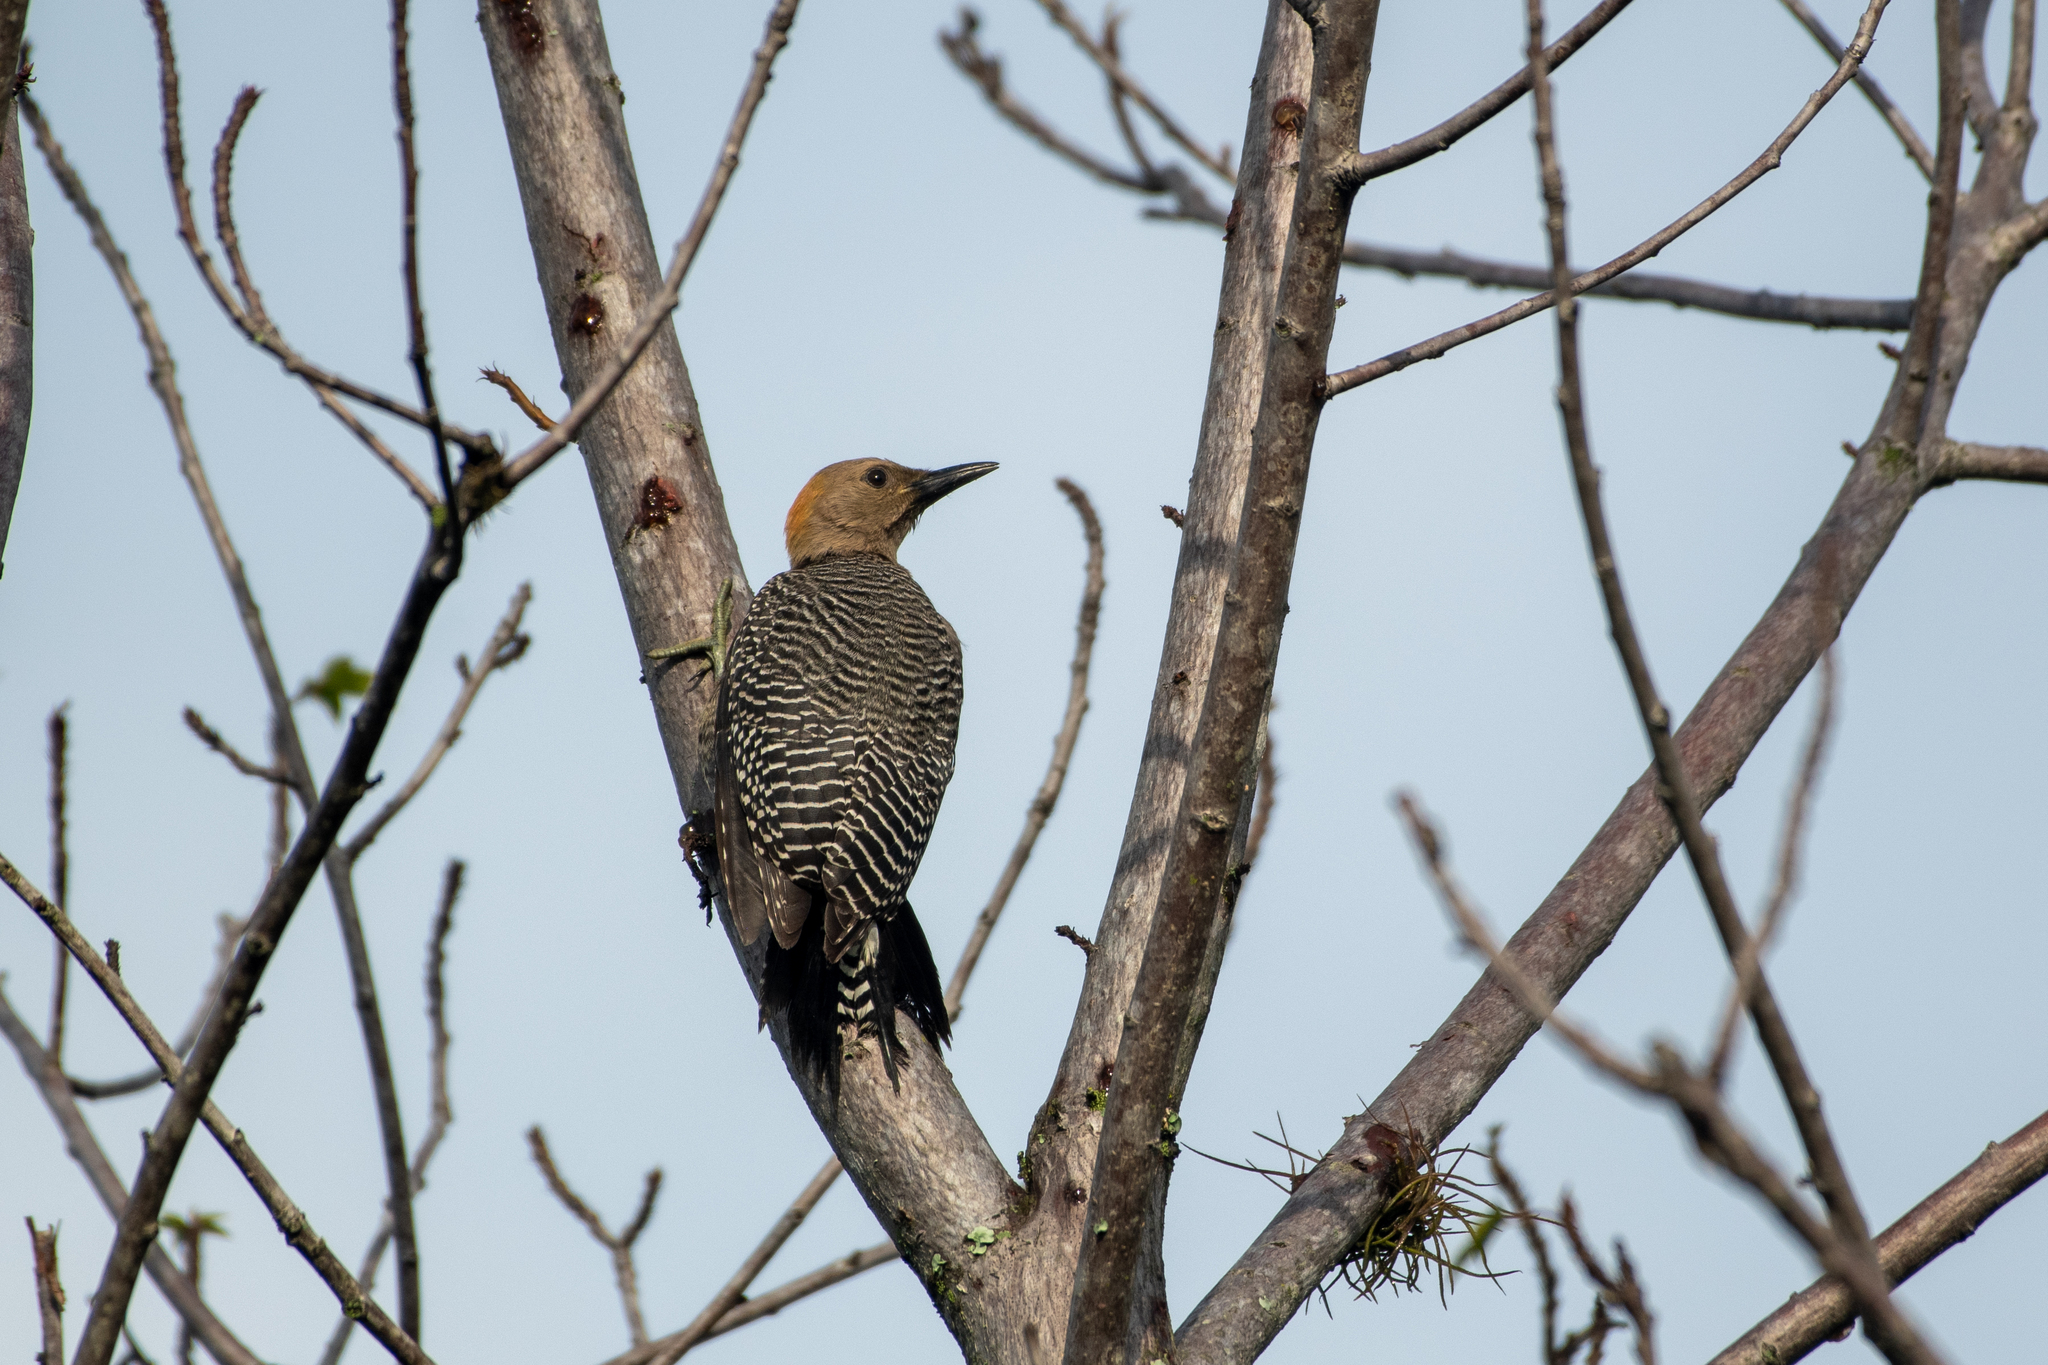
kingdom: Animalia
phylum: Chordata
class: Aves
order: Piciformes
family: Picidae
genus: Melanerpes
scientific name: Melanerpes aurifrons
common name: Golden-fronted woodpecker
